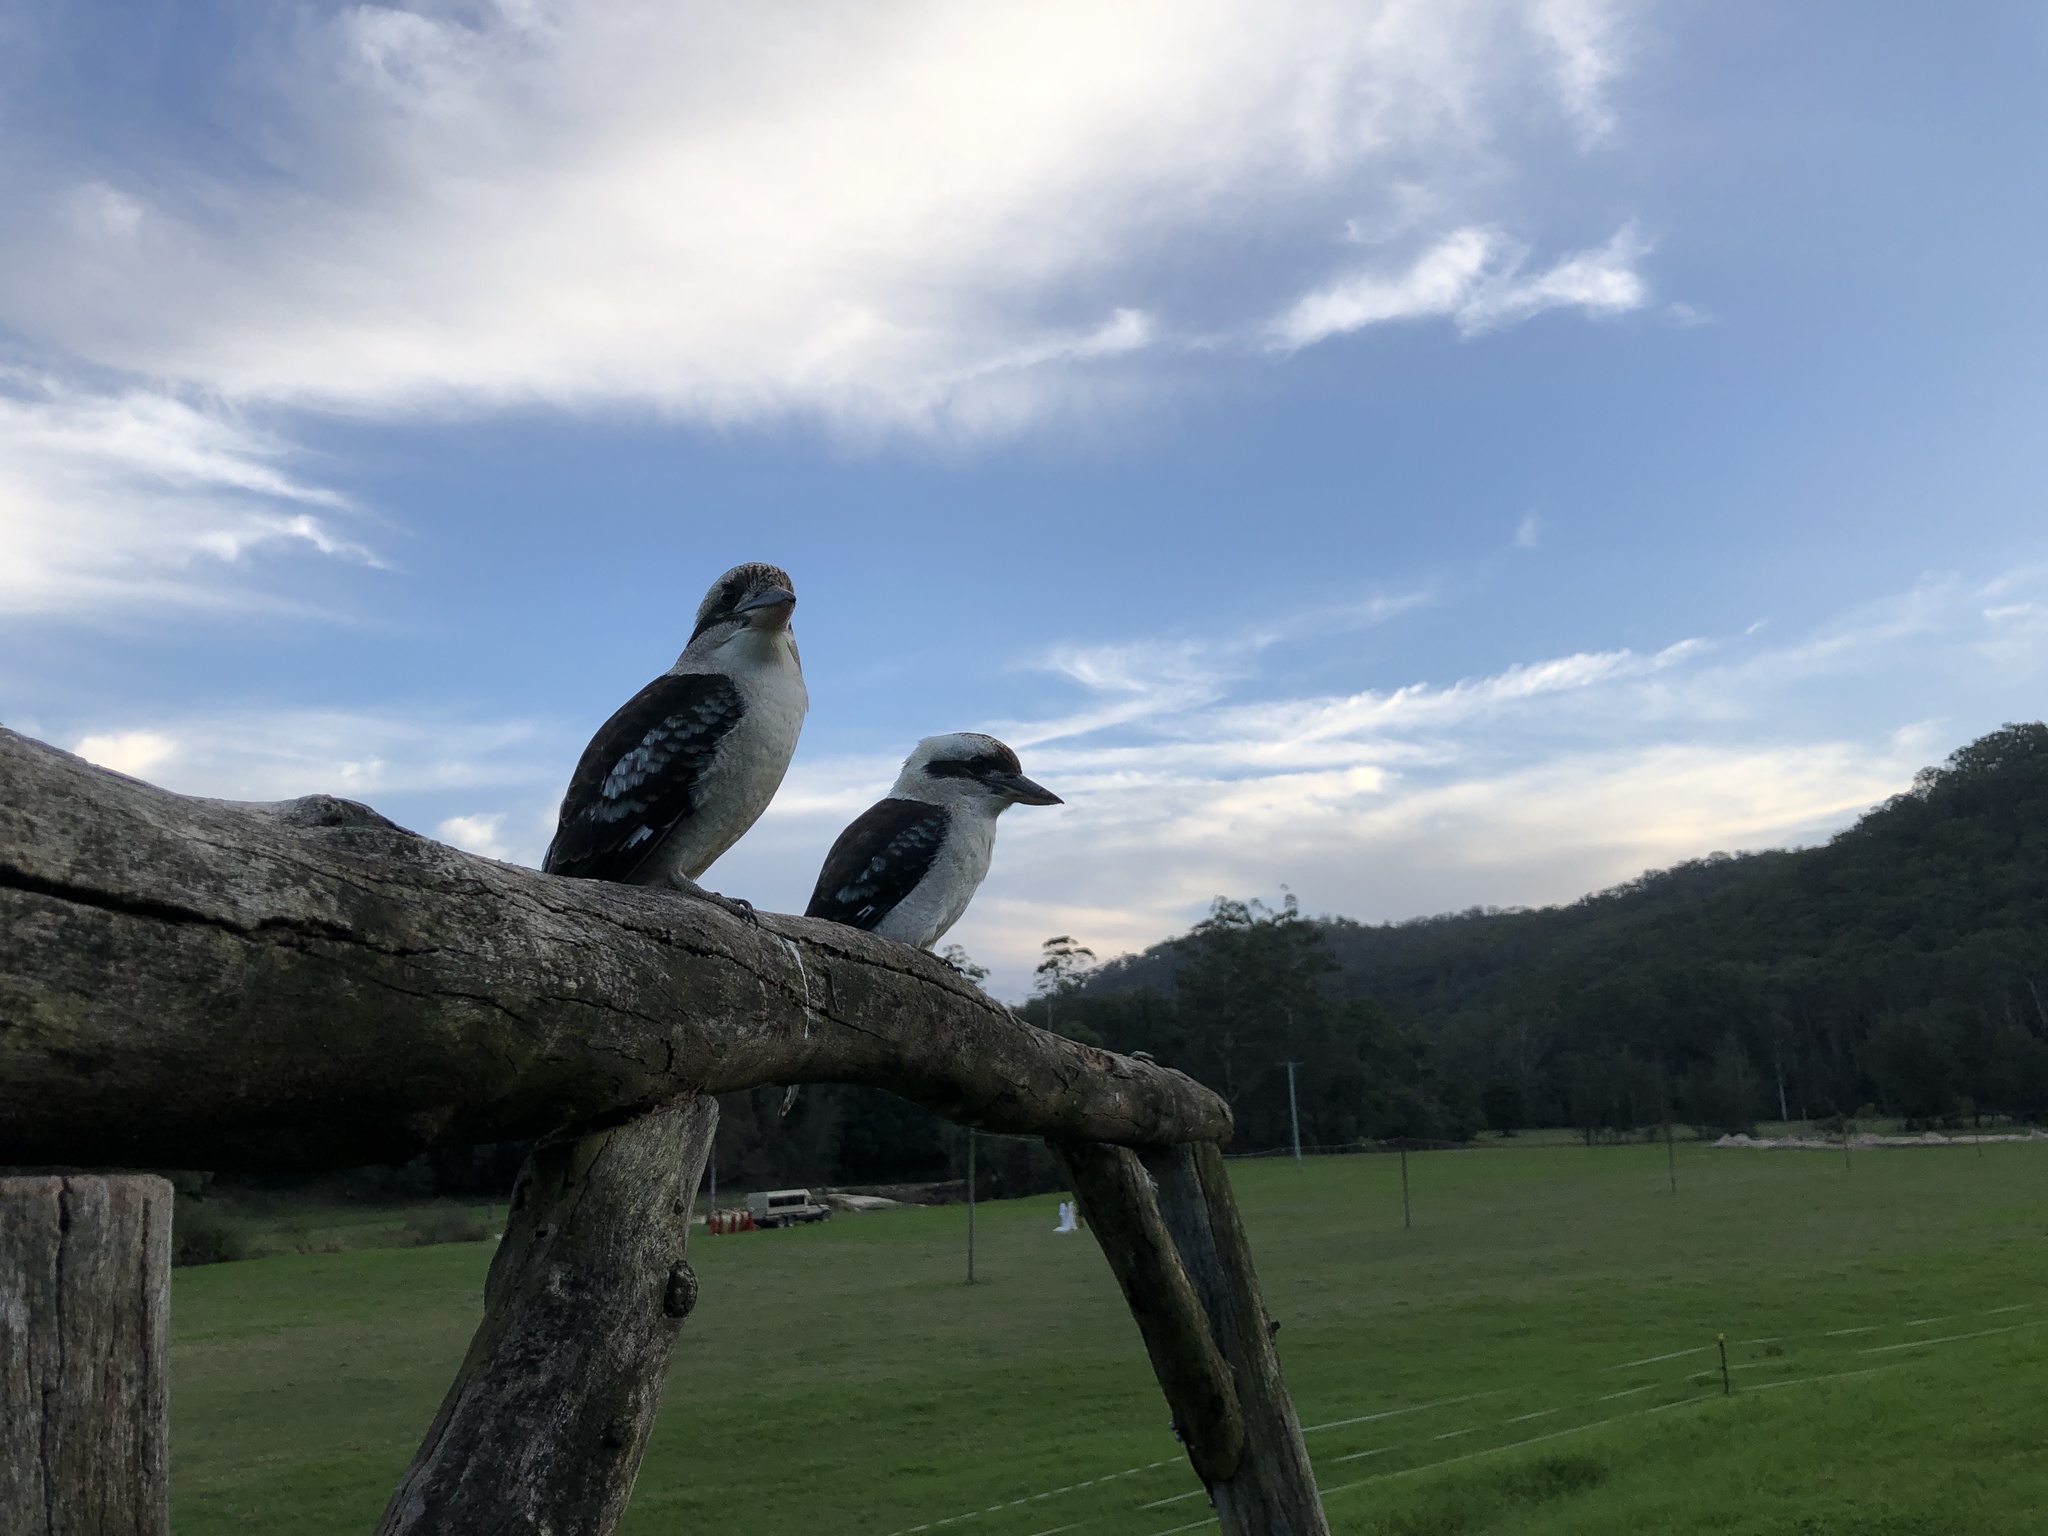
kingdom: Animalia
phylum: Chordata
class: Aves
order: Coraciiformes
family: Alcedinidae
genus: Dacelo
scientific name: Dacelo novaeguineae
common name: Laughing kookaburra
